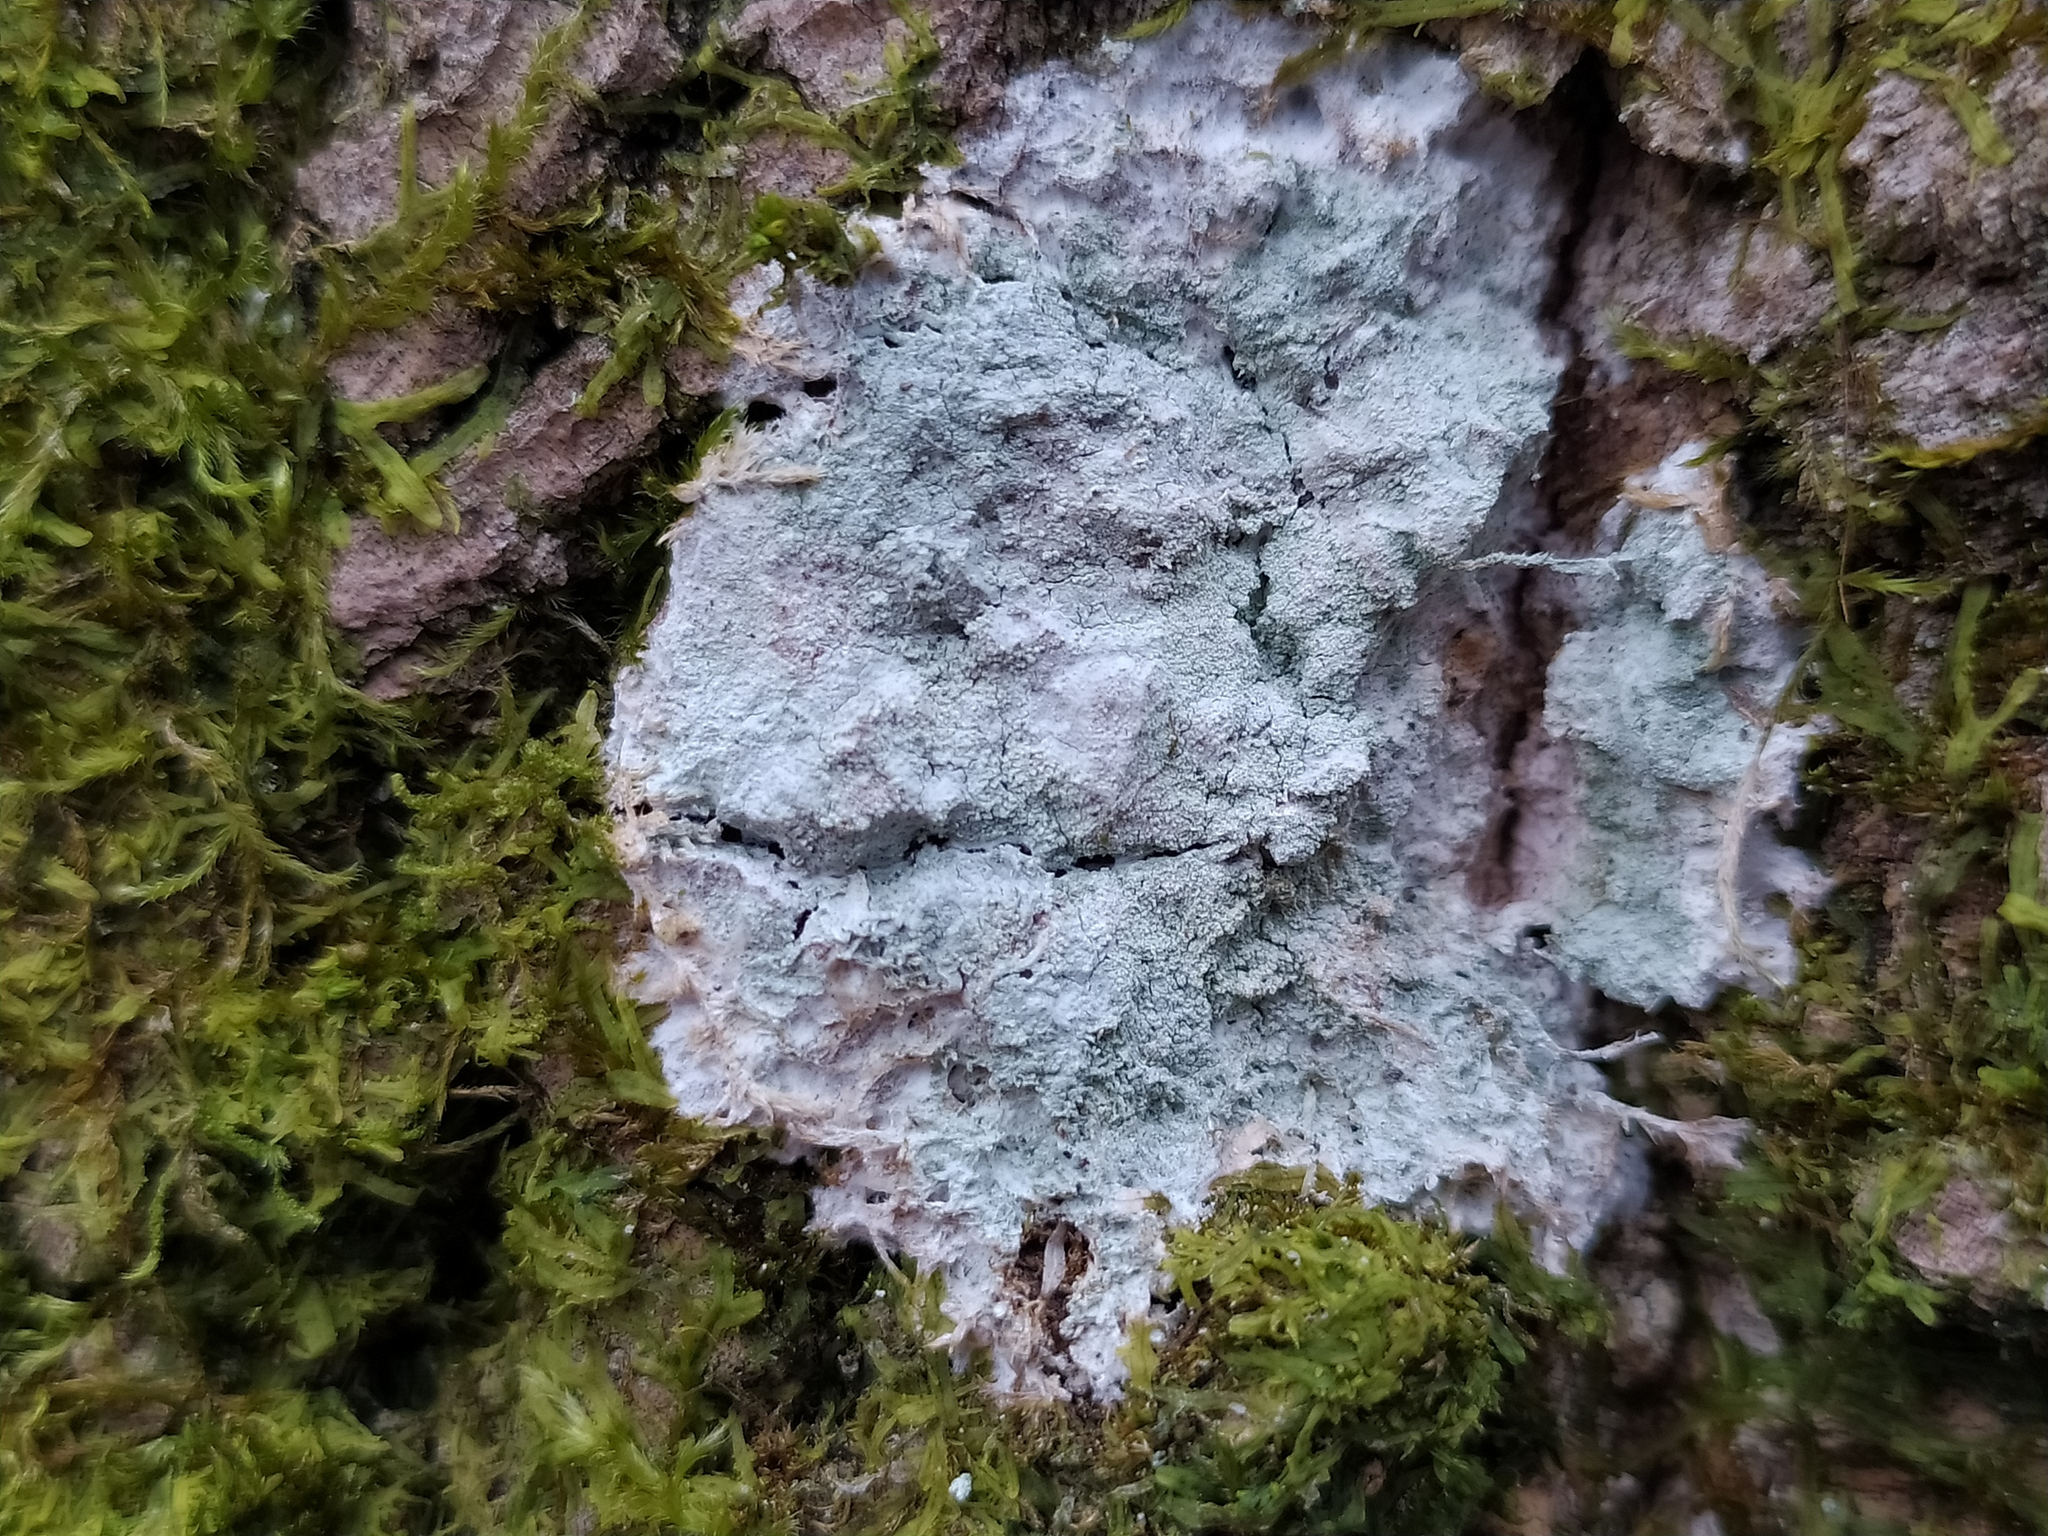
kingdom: Fungi
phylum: Ascomycota
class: Lecanoromycetes
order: Ostropales
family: Phlyctidaceae
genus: Phlyctis
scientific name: Phlyctis argena
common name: Whitewash lichen
